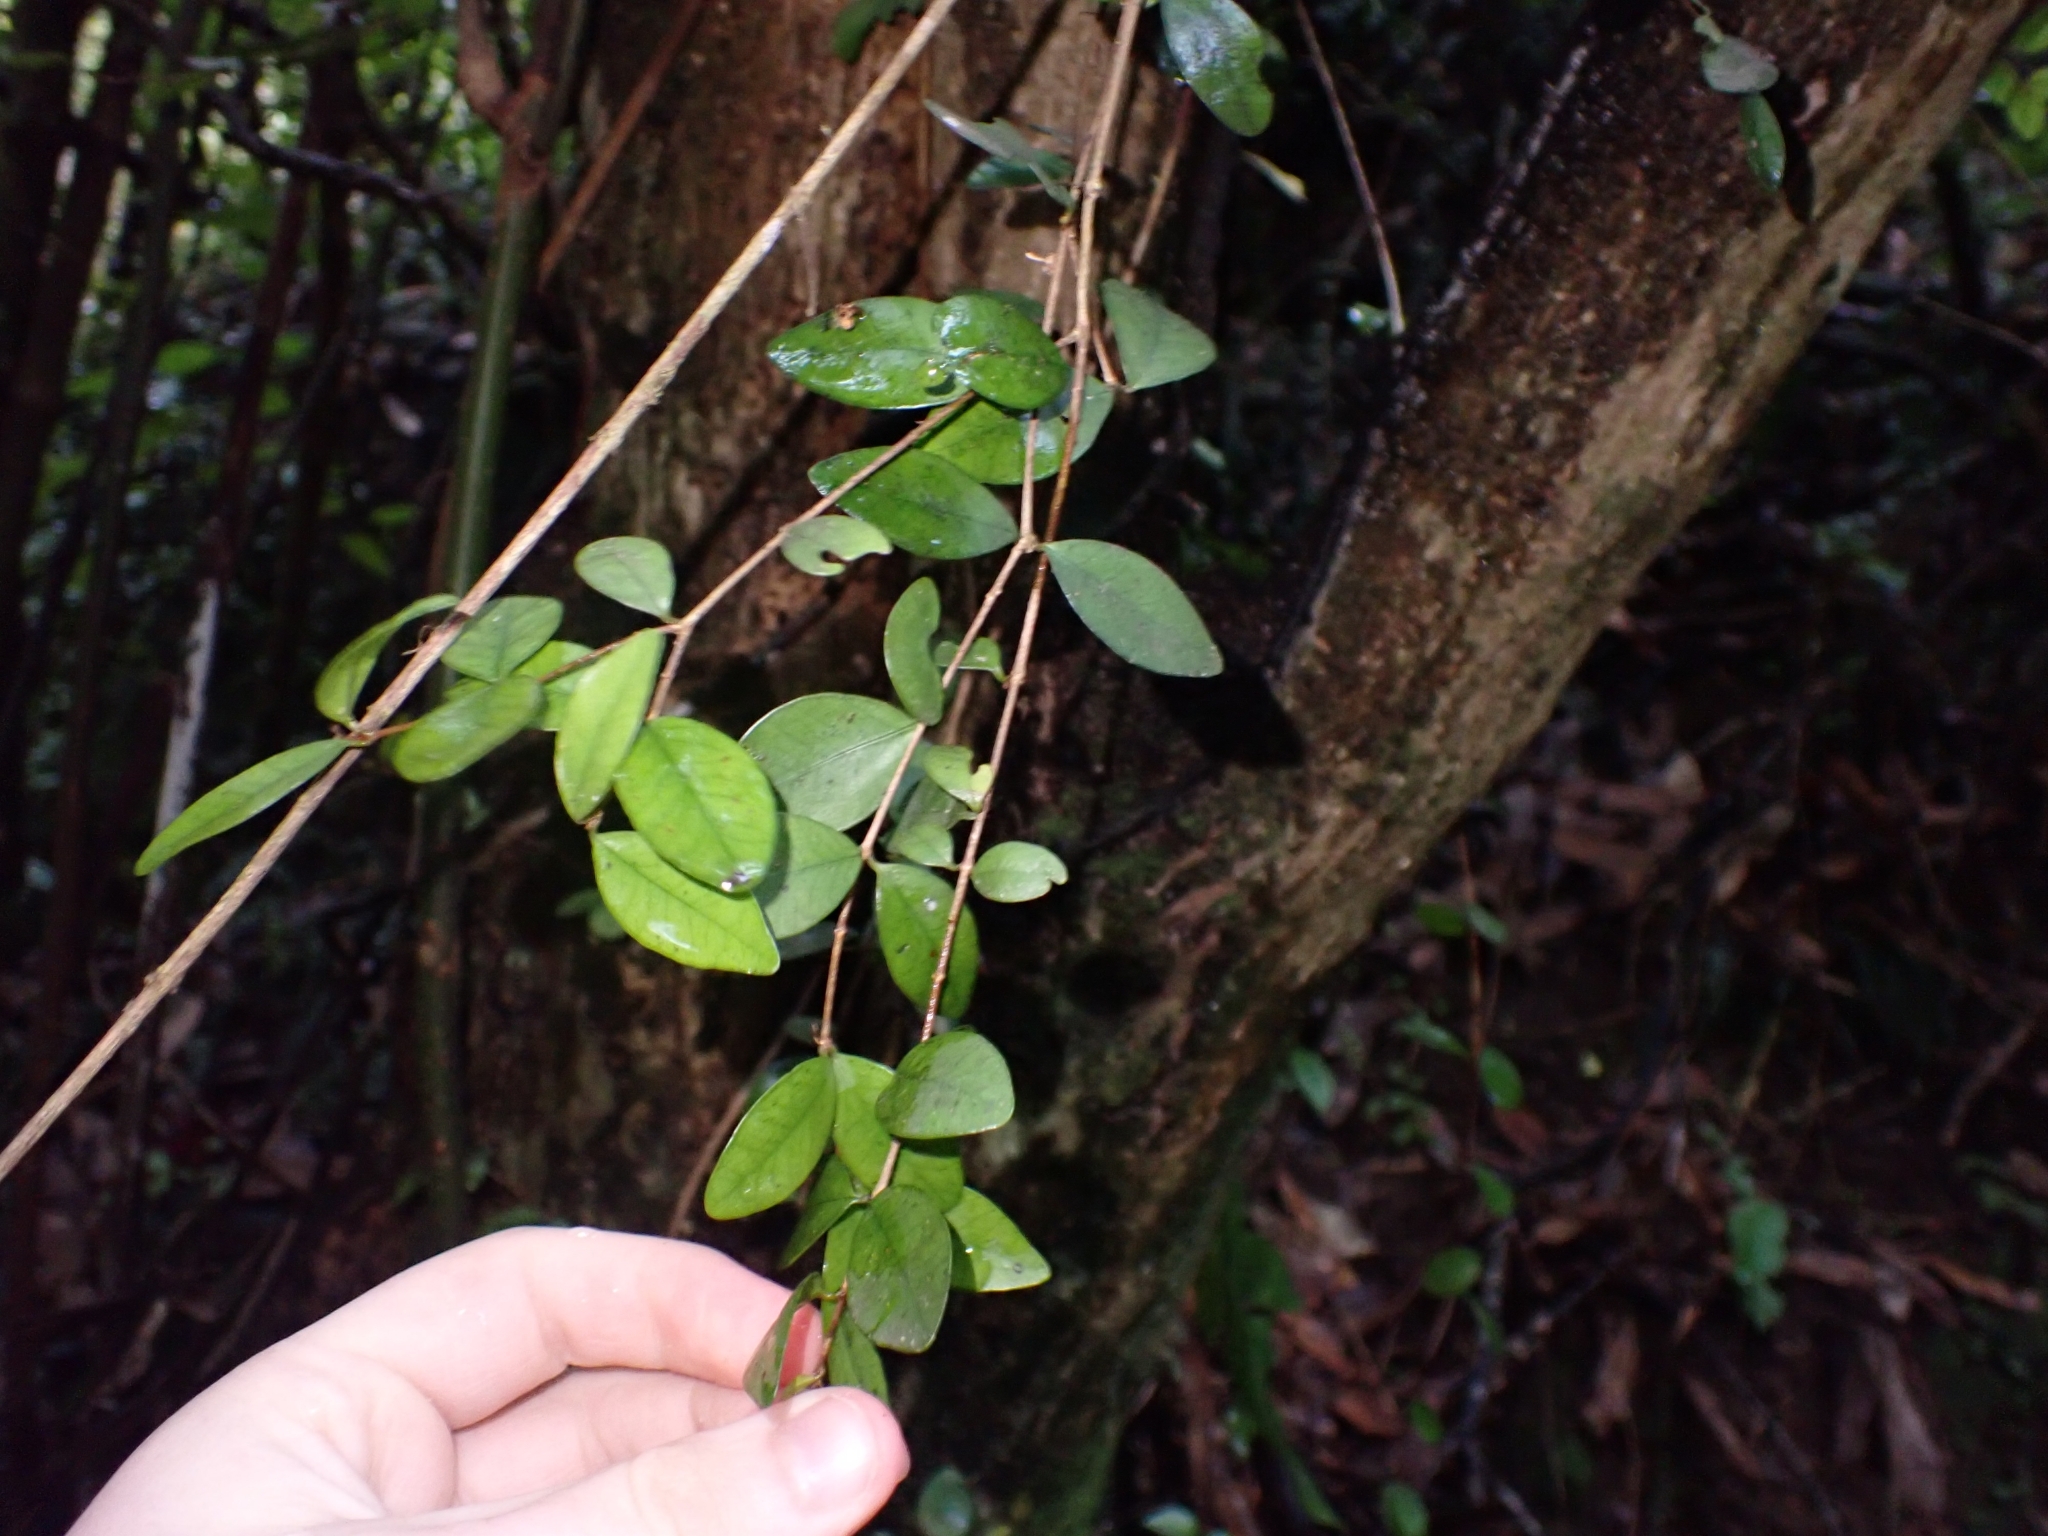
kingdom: Plantae
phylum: Tracheophyta
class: Magnoliopsida
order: Myrtales
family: Myrtaceae
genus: Metrosideros
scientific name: Metrosideros fulgens
